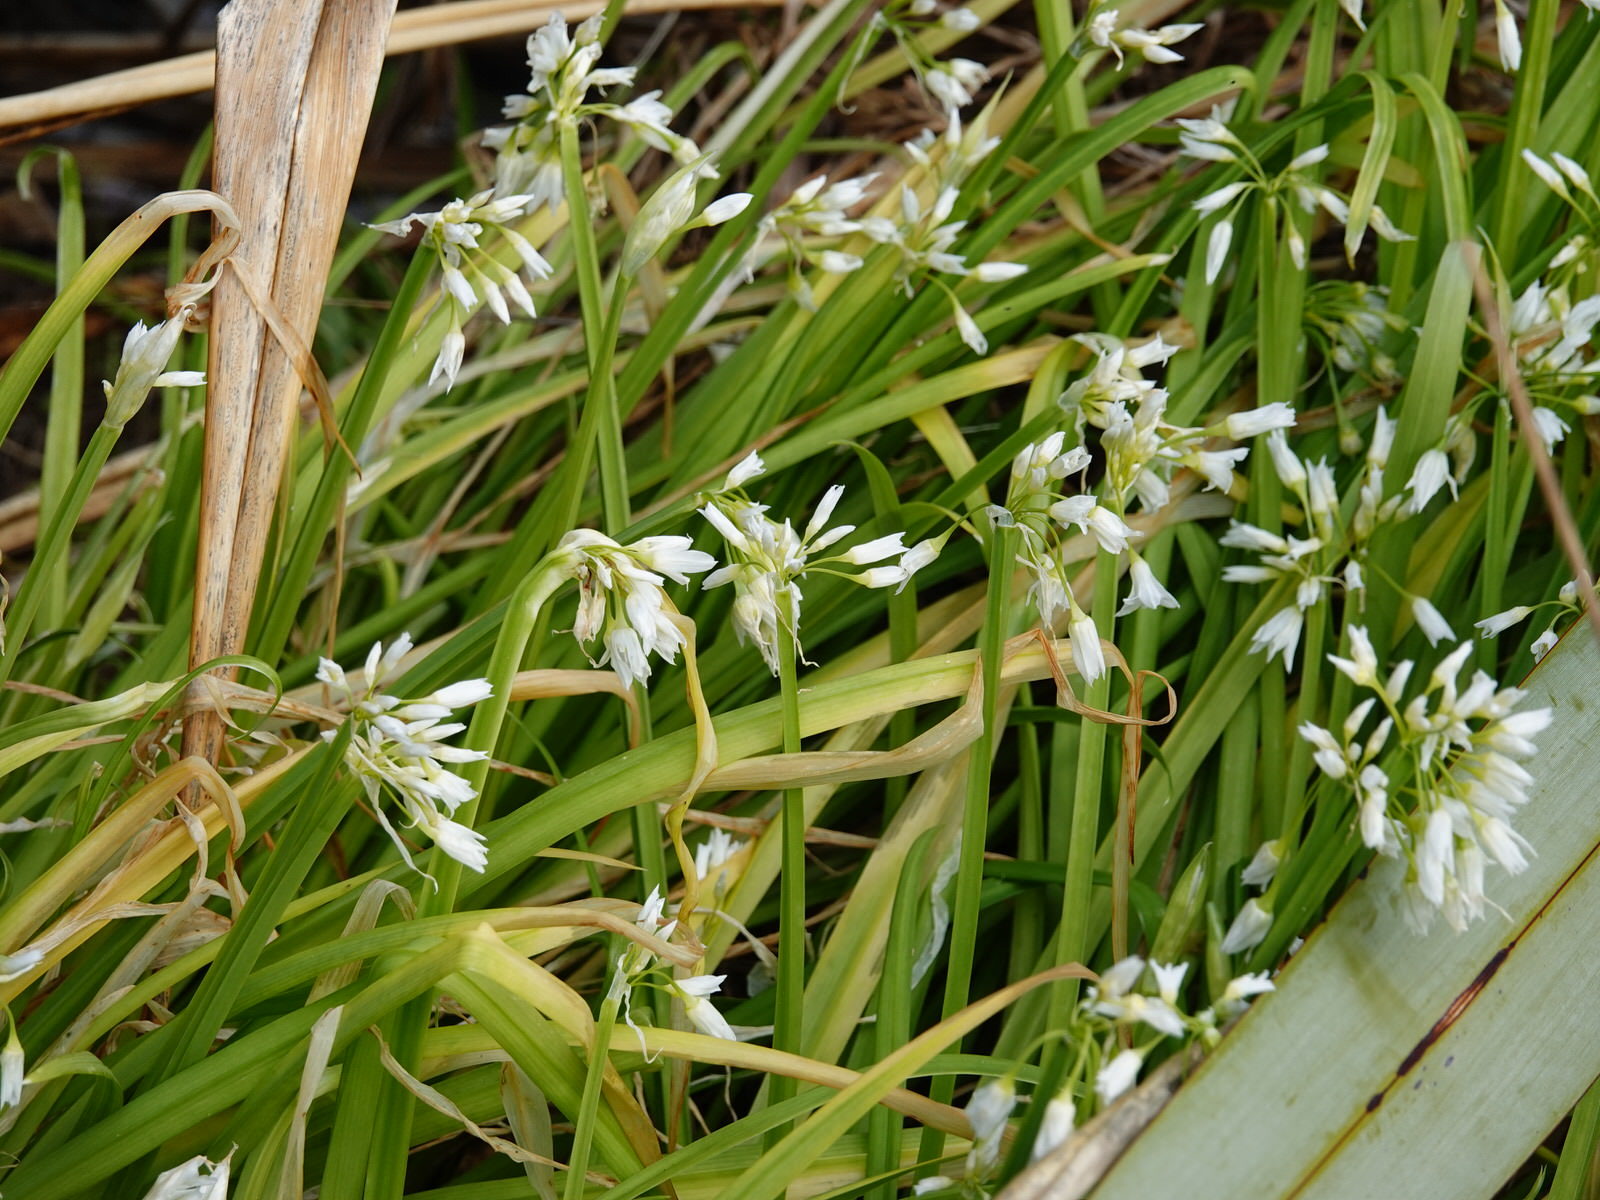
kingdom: Plantae
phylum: Tracheophyta
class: Liliopsida
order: Asparagales
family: Amaryllidaceae
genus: Allium
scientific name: Allium triquetrum
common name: Three-cornered garlic
